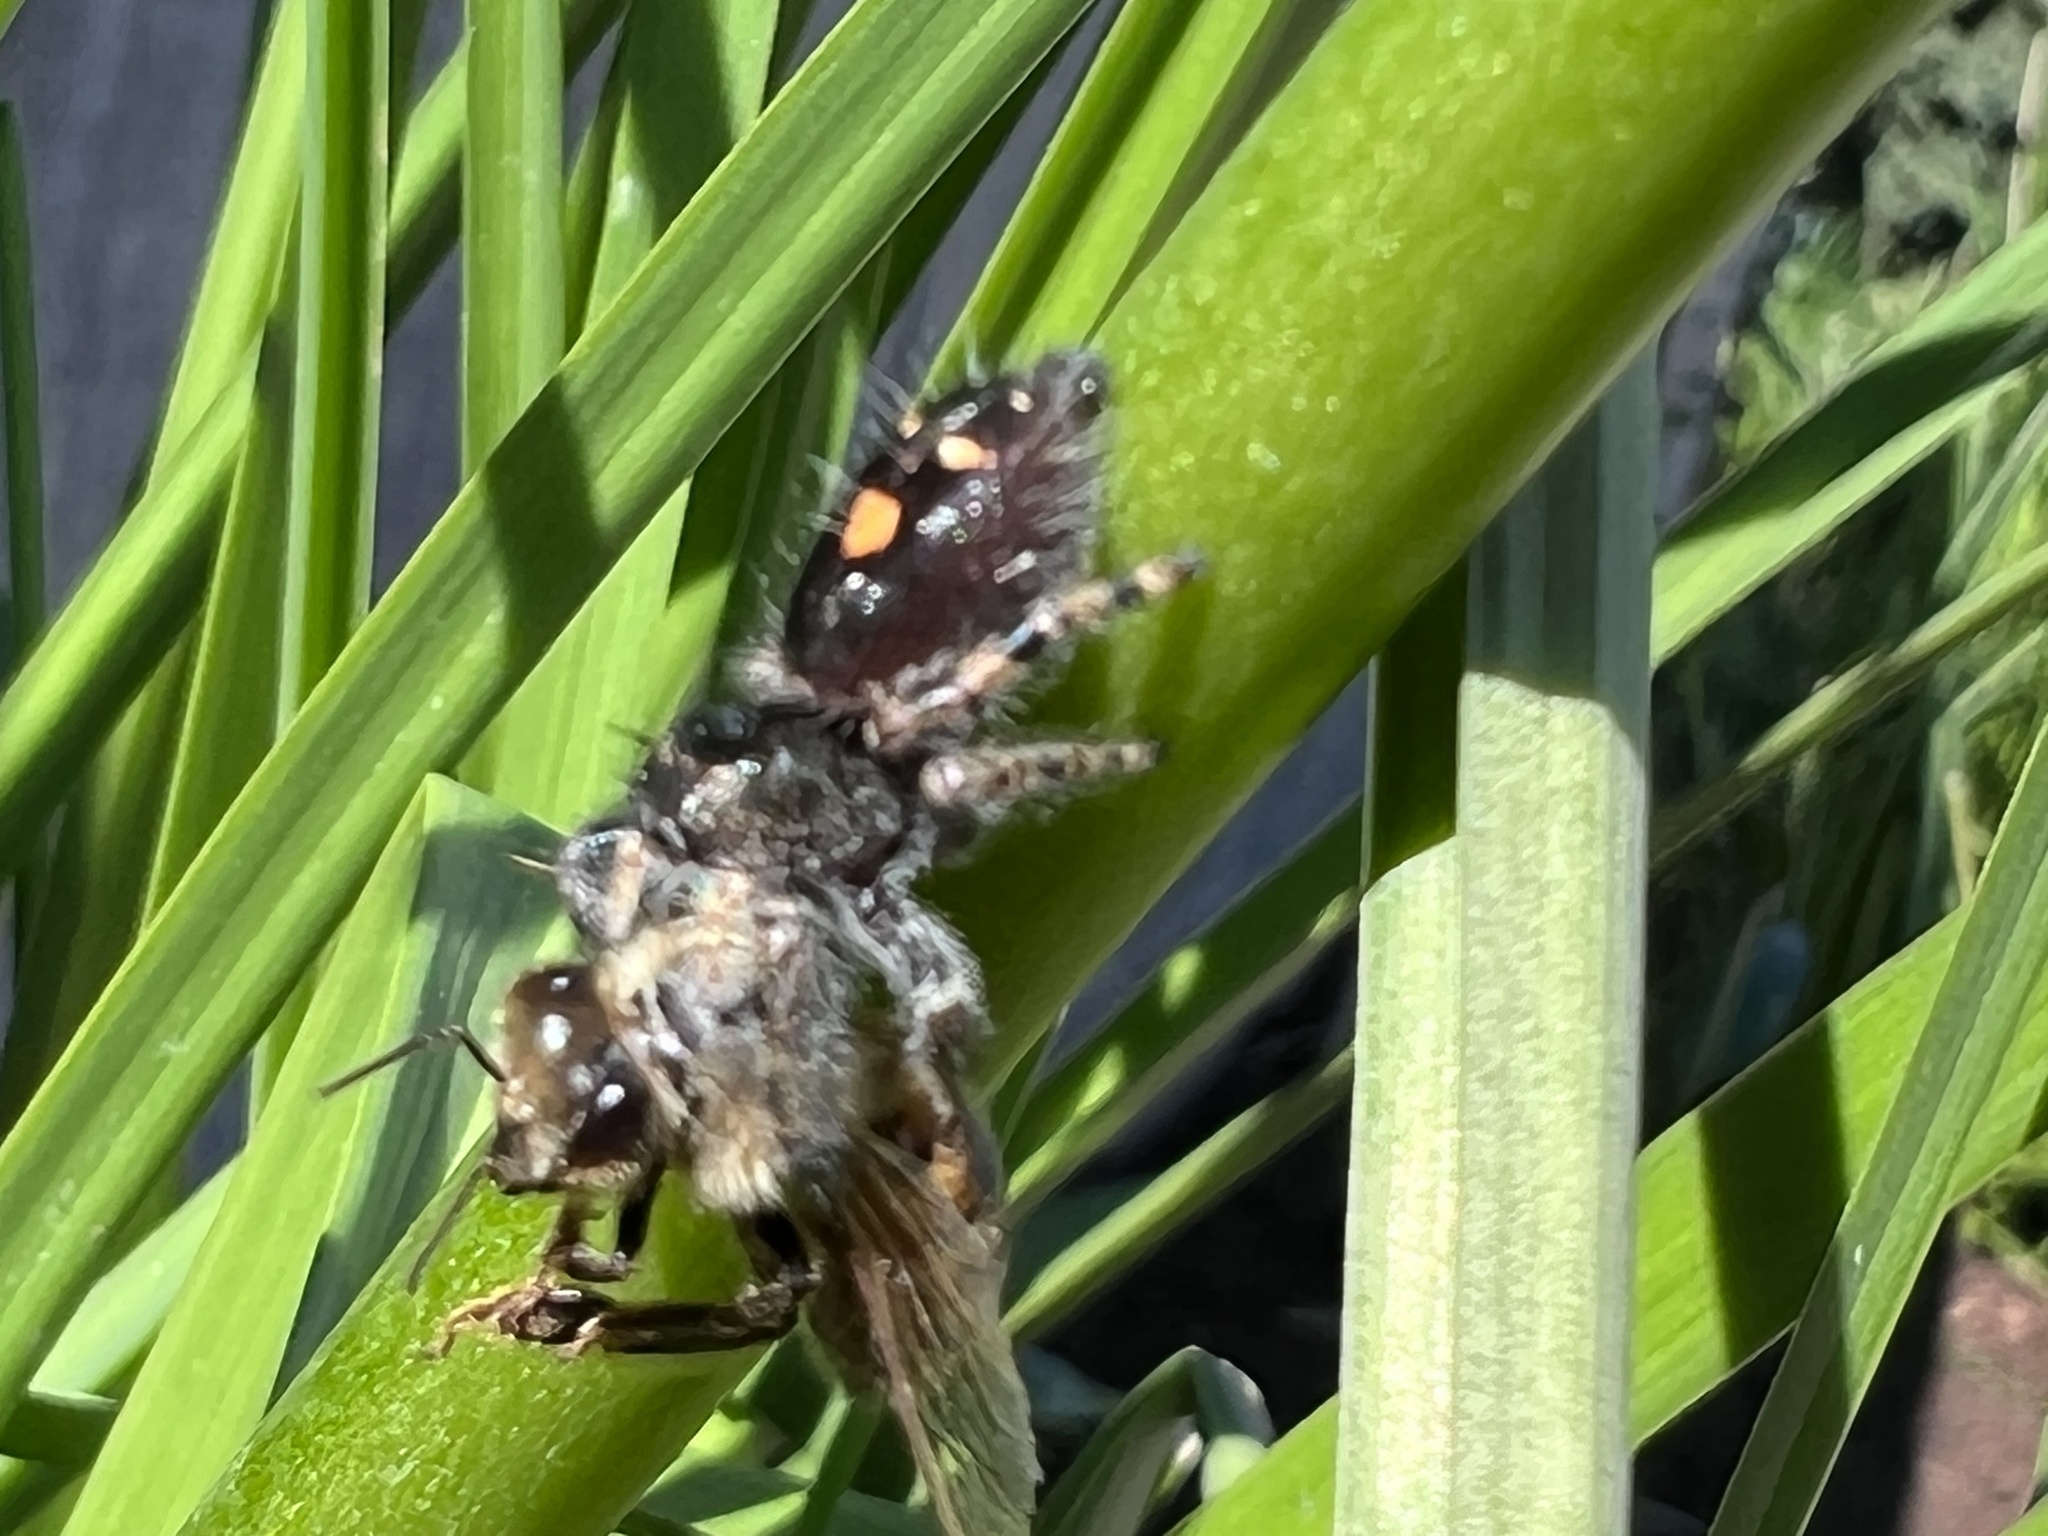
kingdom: Animalia
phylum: Arthropoda
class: Arachnida
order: Araneae
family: Salticidae
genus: Phidippus
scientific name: Phidippus audax
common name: Bold jumper
